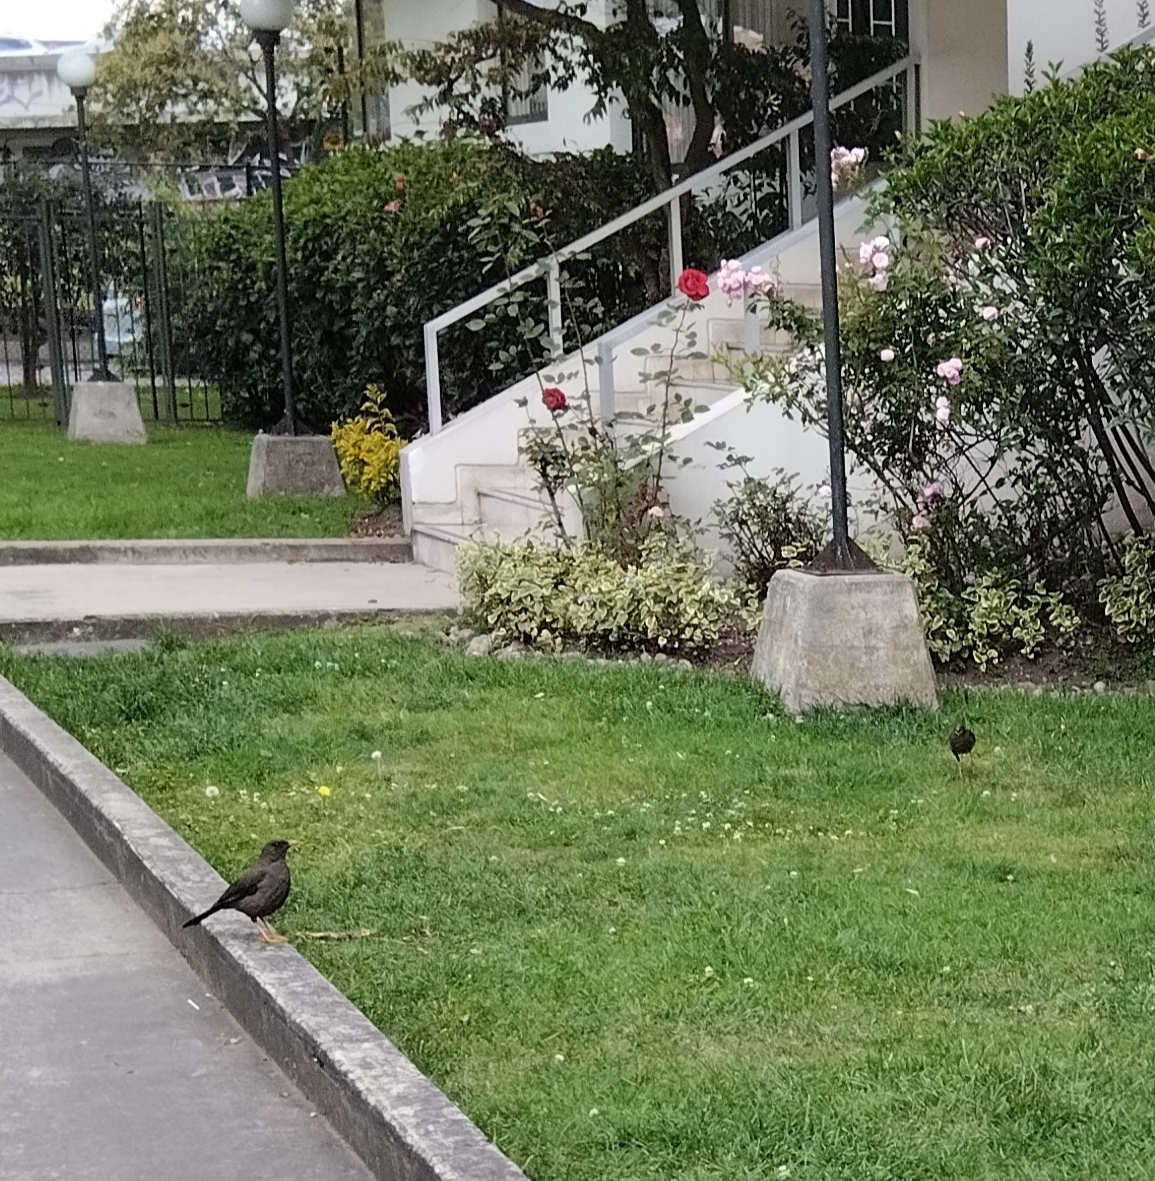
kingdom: Animalia
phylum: Chordata
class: Aves
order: Passeriformes
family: Turdidae
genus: Turdus
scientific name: Turdus fuscater
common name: Great thrush
